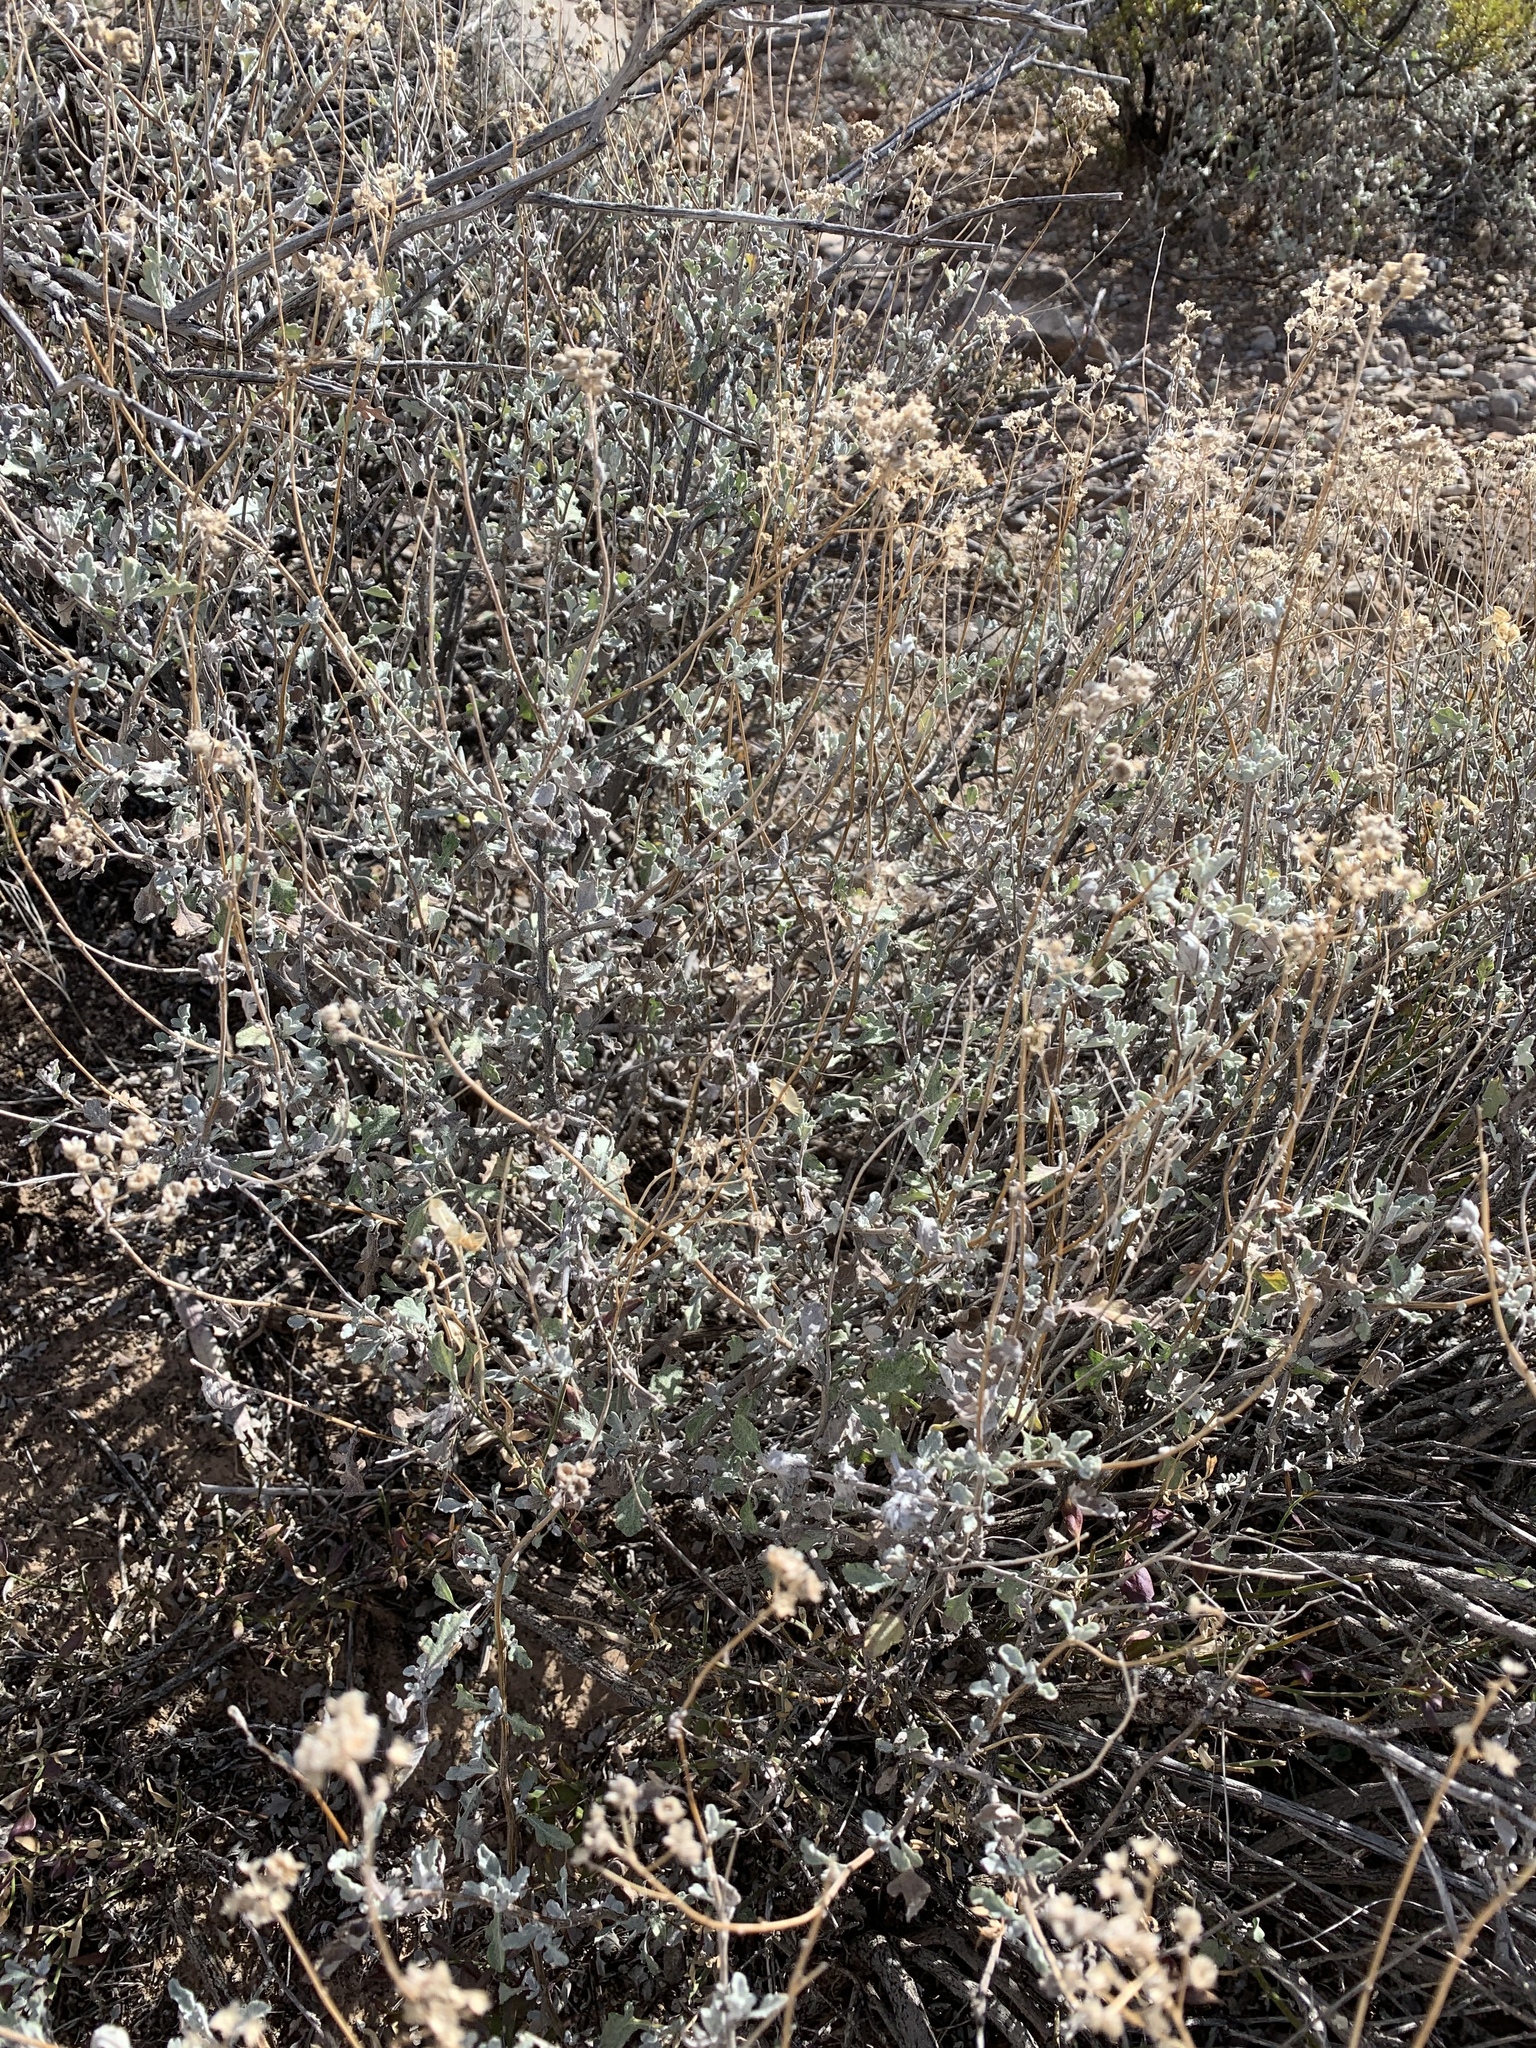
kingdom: Plantae
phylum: Tracheophyta
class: Magnoliopsida
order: Asterales
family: Asteraceae
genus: Parthenium
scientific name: Parthenium incanum
